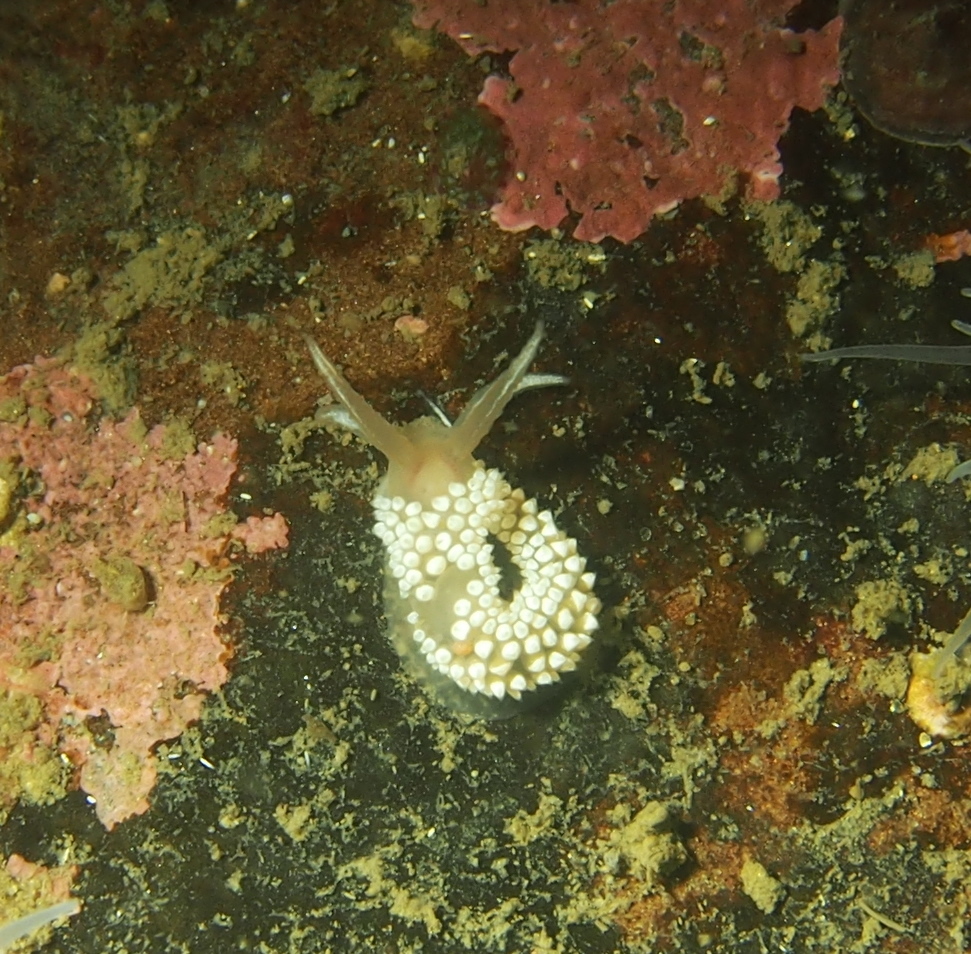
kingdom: Animalia
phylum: Mollusca
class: Gastropoda
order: Nudibranchia
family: Coryphellidae
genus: Coryphella
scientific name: Coryphella verrucosa
